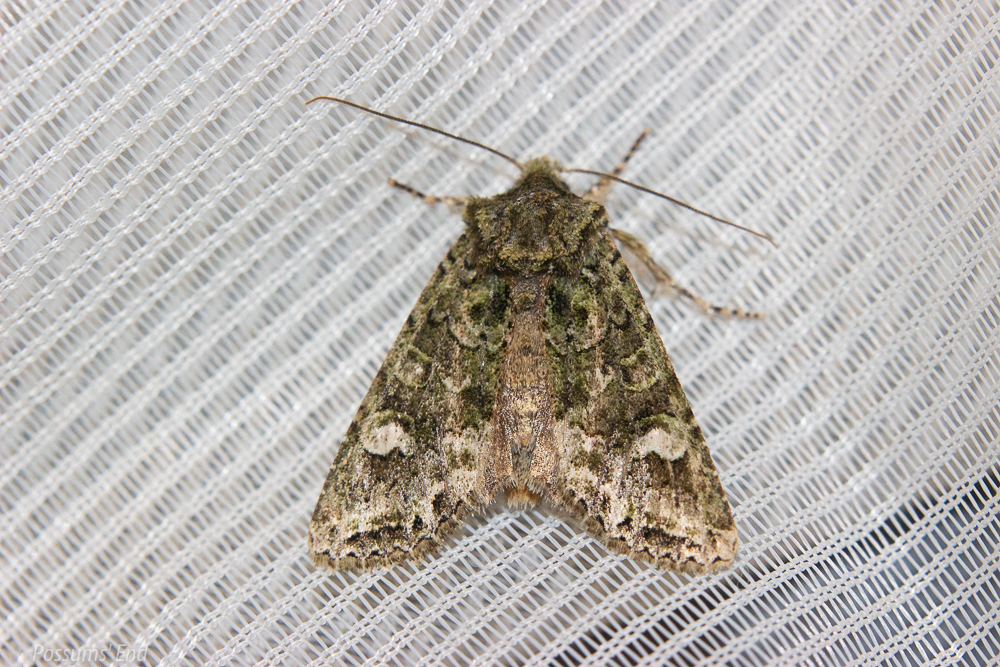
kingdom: Animalia
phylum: Arthropoda
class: Insecta
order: Lepidoptera
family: Noctuidae
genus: Ichneutica
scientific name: Ichneutica
